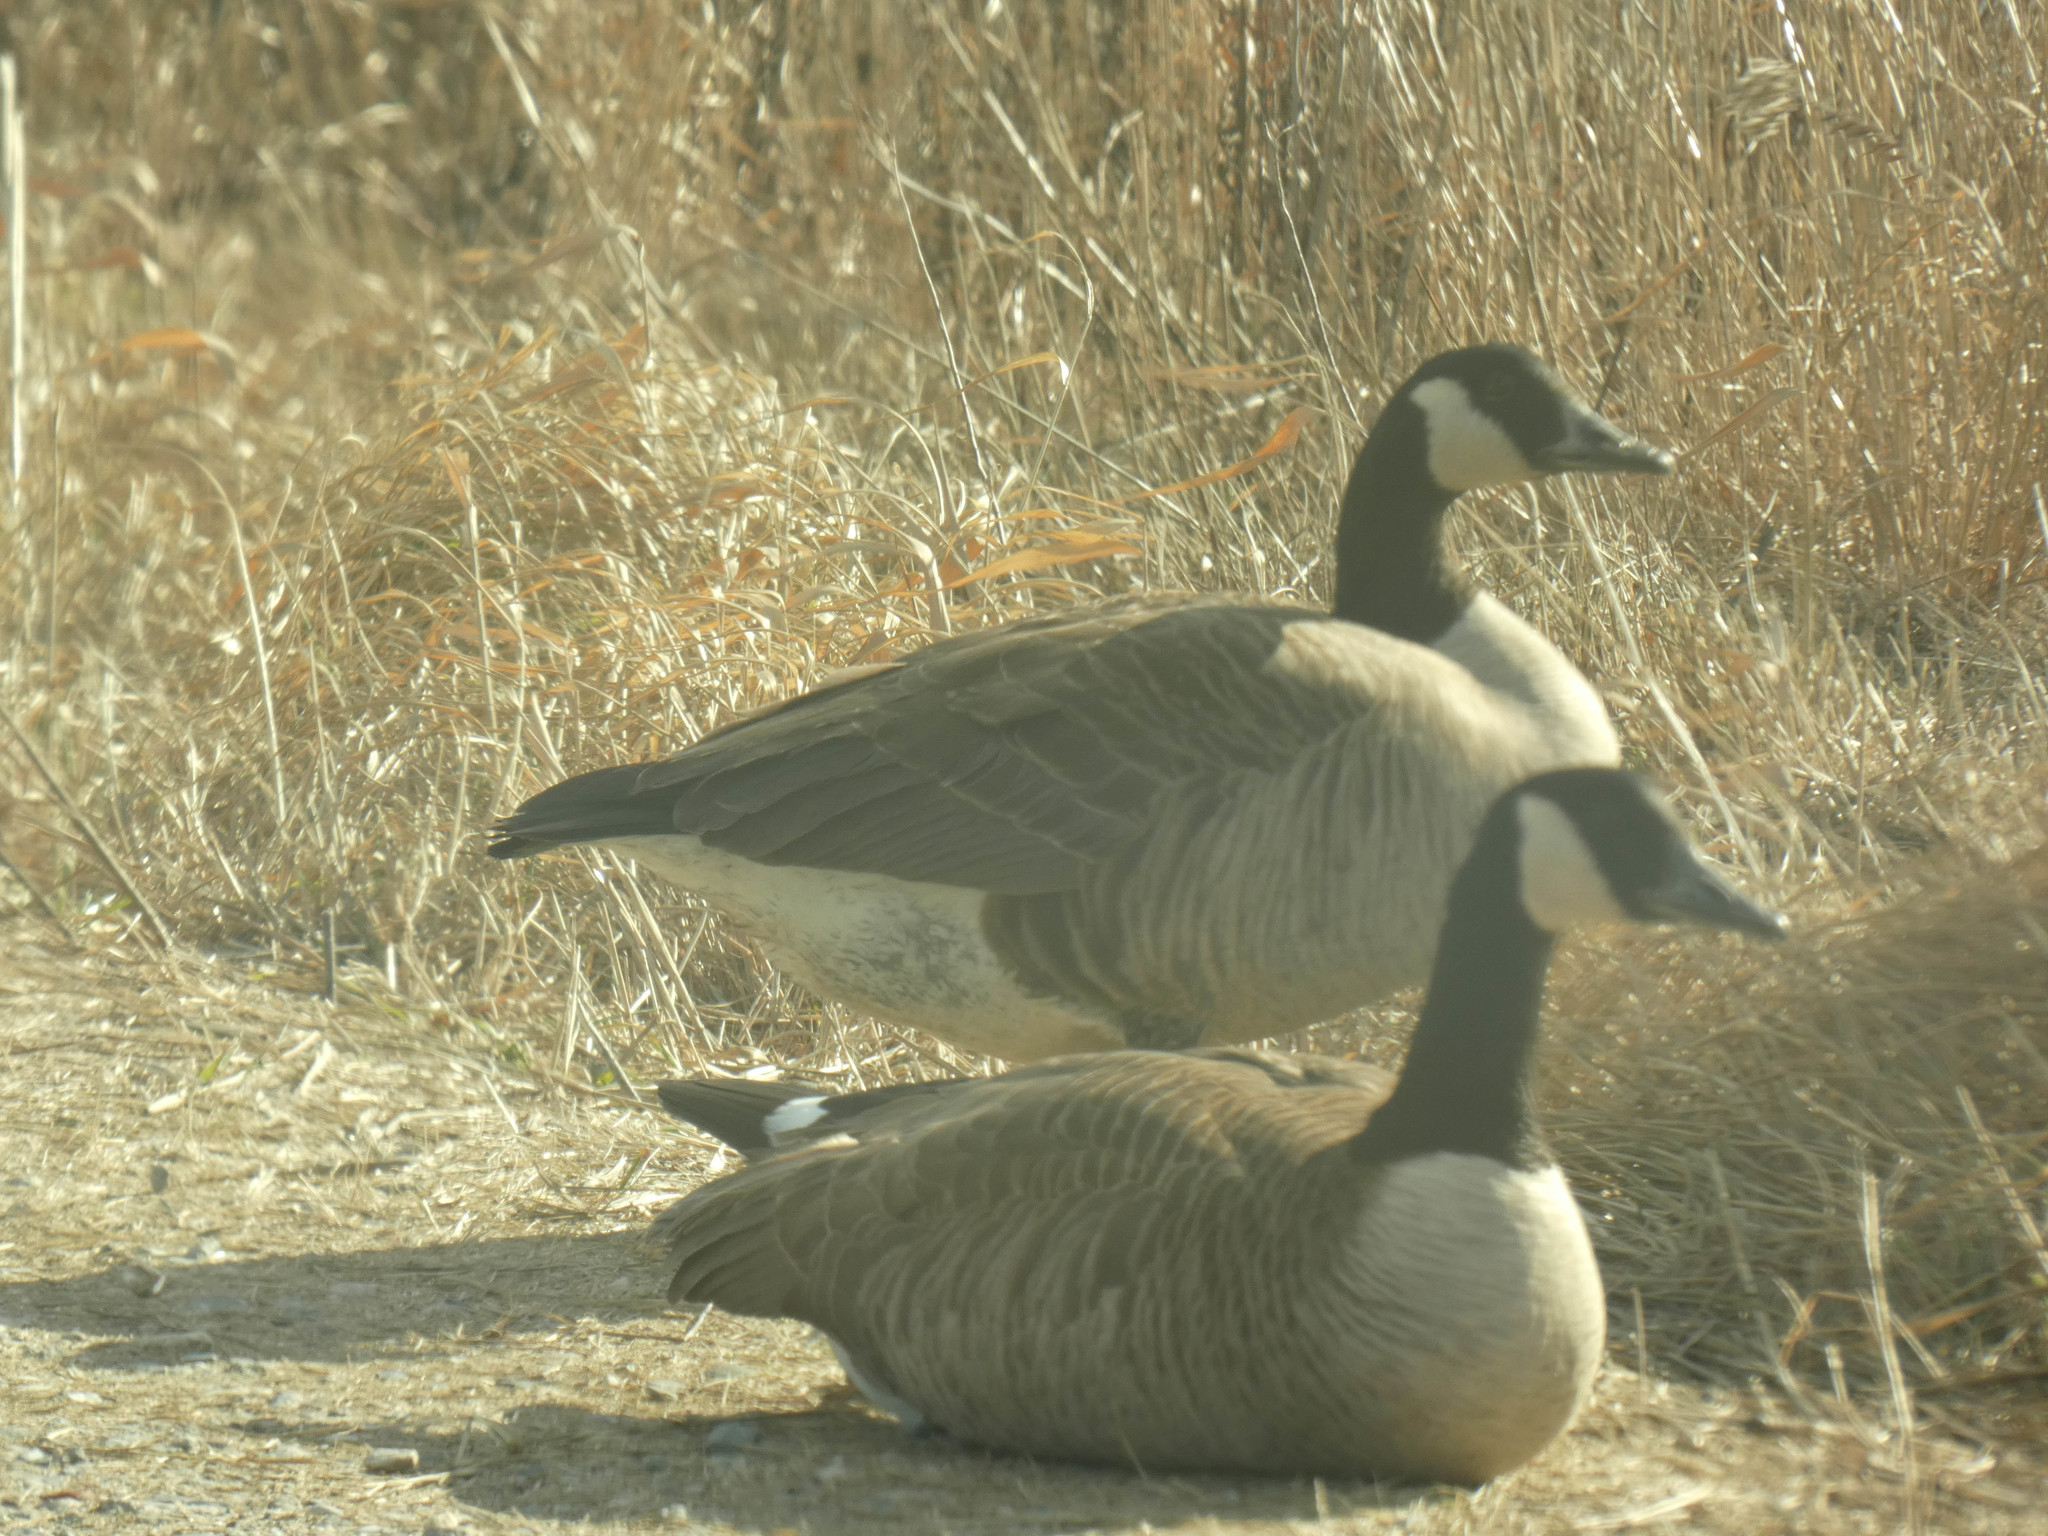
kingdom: Animalia
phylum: Chordata
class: Aves
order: Anseriformes
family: Anatidae
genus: Branta
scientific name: Branta canadensis
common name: Canada goose
